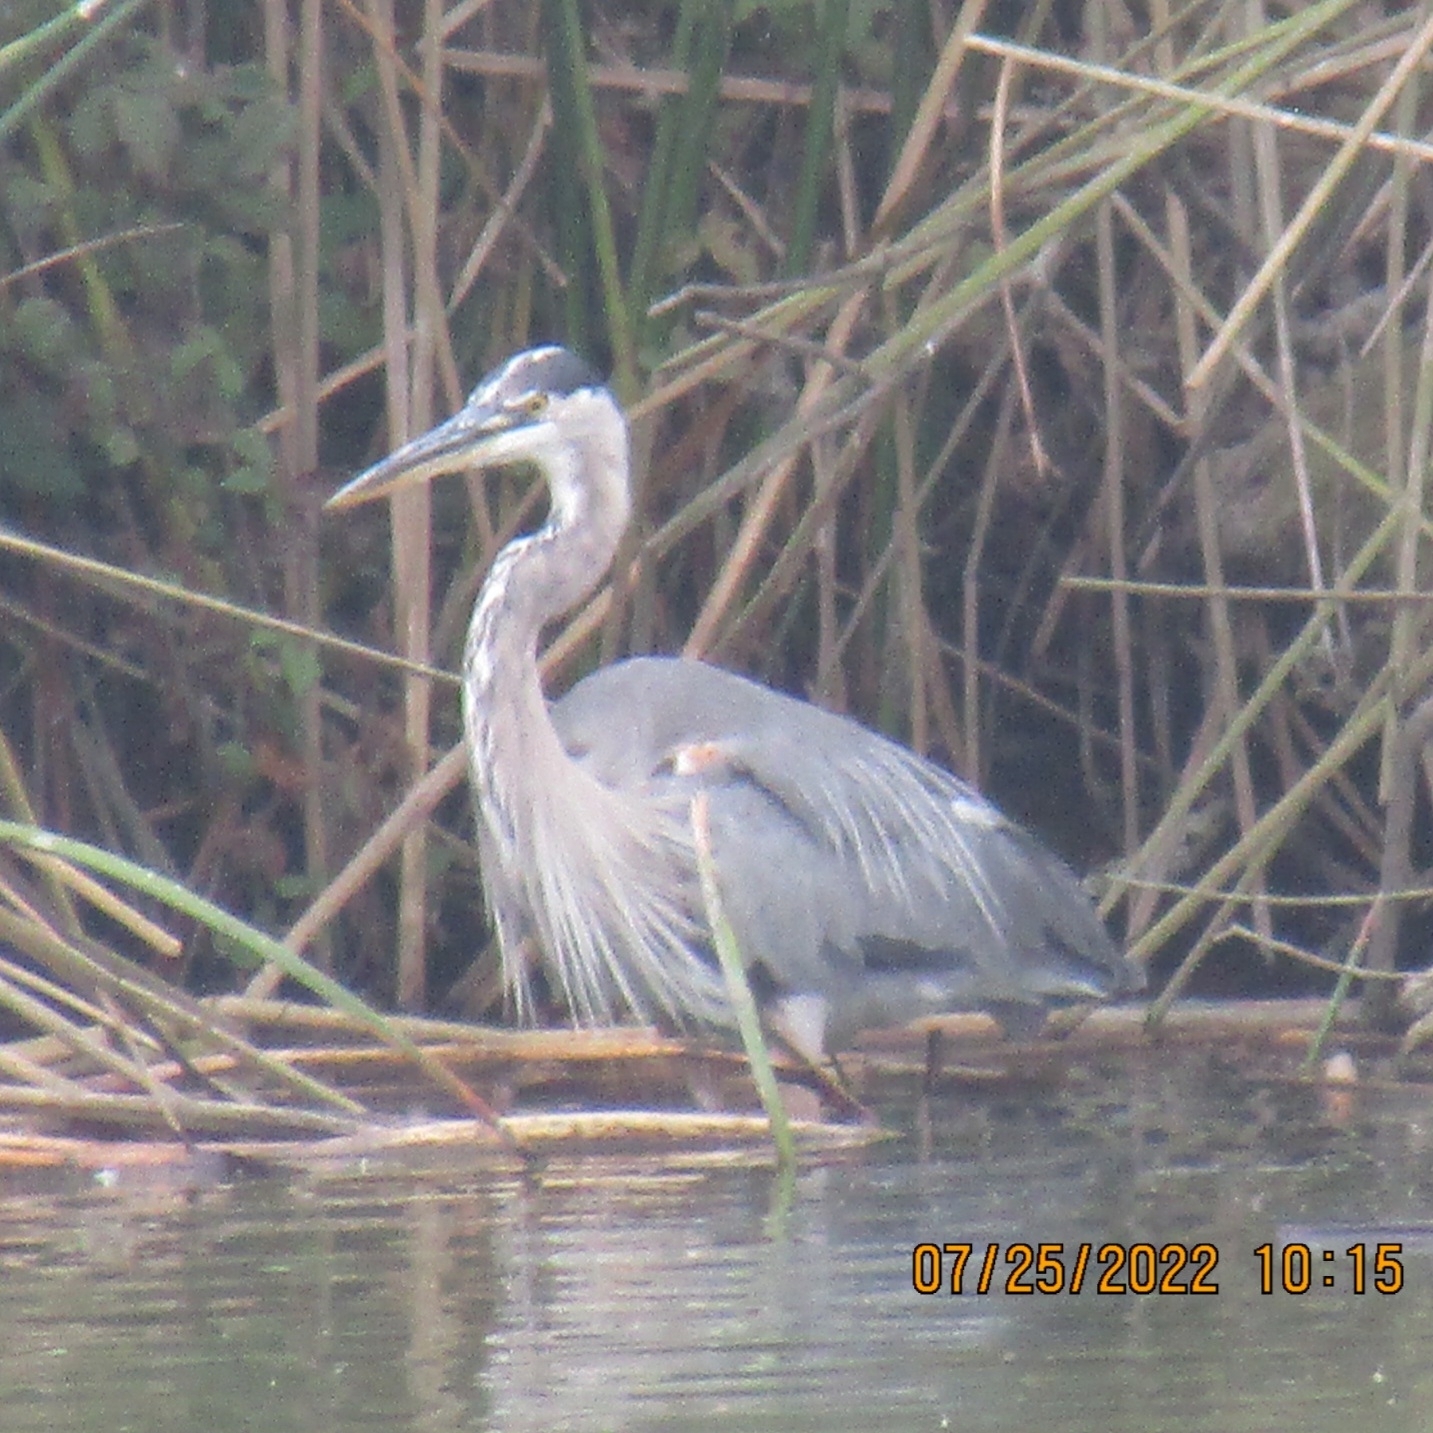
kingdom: Animalia
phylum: Chordata
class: Aves
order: Pelecaniformes
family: Ardeidae
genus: Ardea
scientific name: Ardea herodias
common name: Great blue heron
